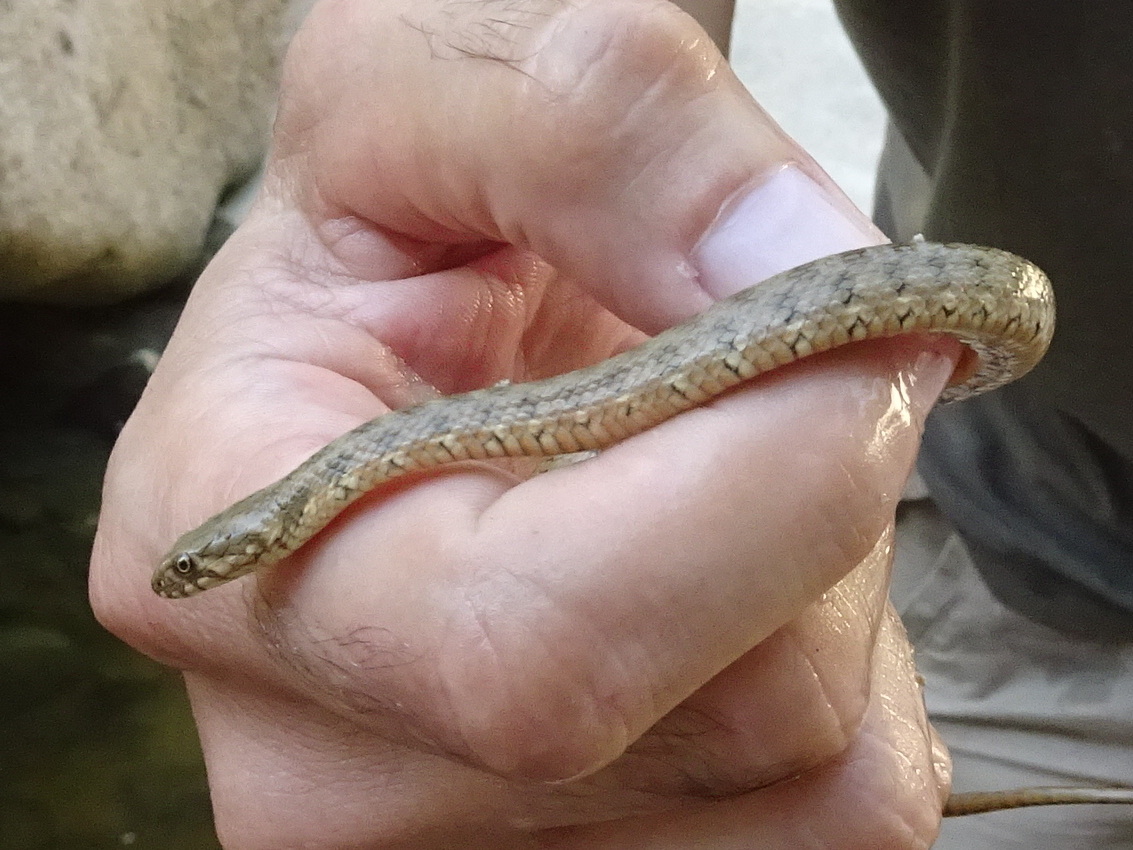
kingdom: Animalia
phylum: Chordata
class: Squamata
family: Colubridae
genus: Natrix
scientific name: Natrix maura
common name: Viperine water snake
